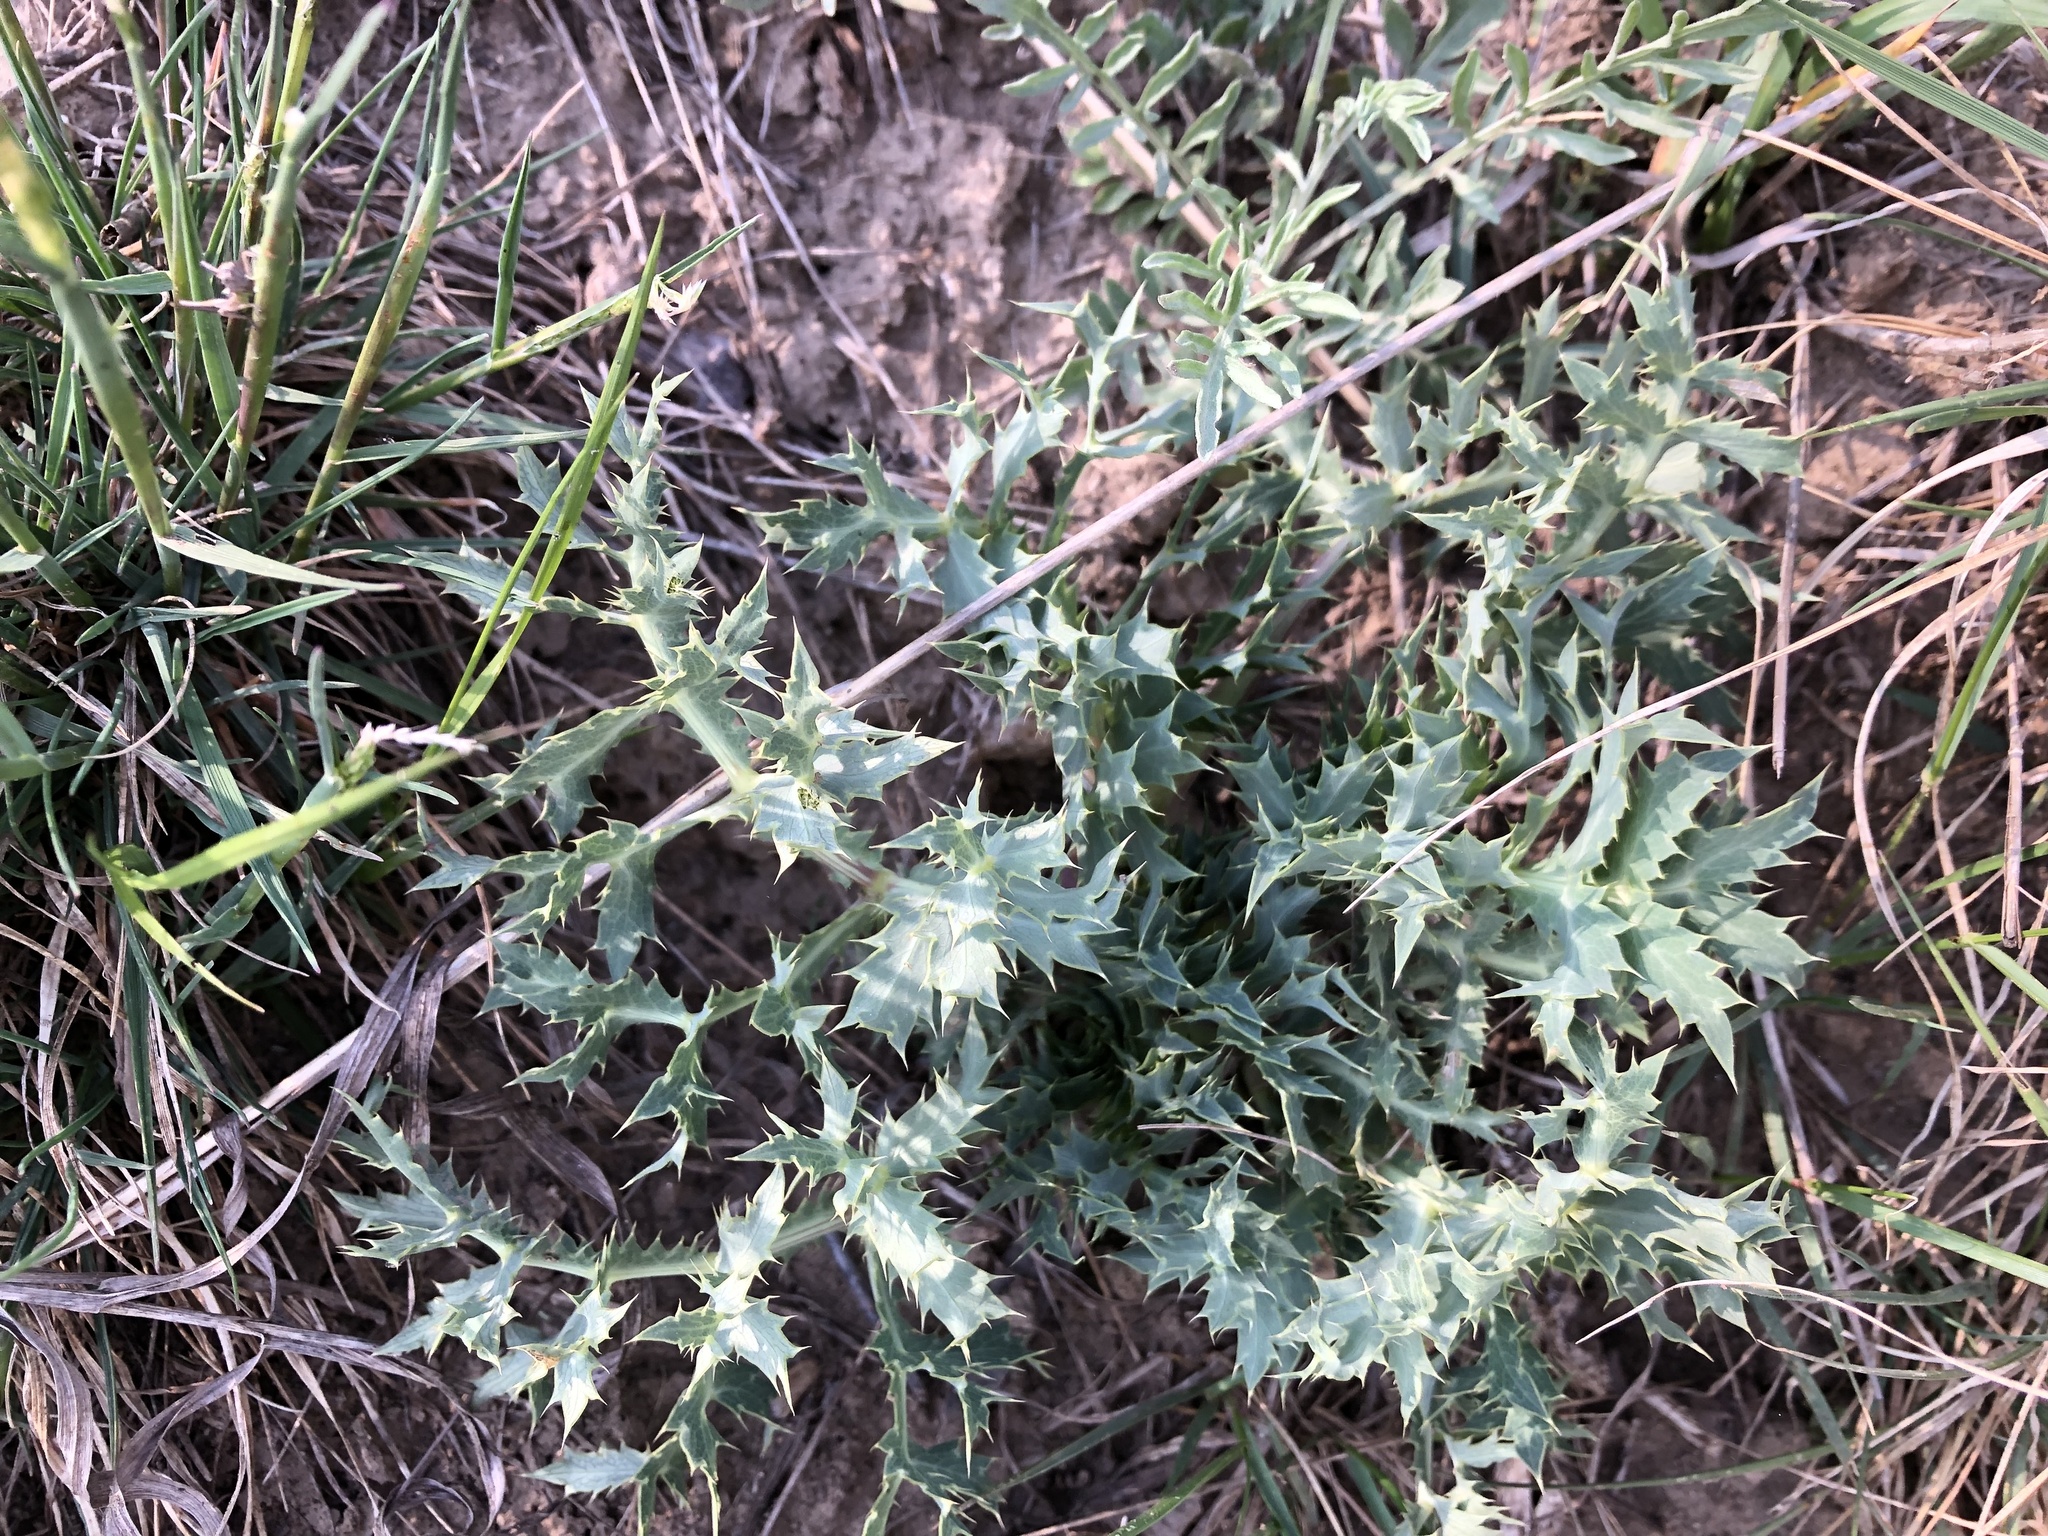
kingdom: Plantae
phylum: Tracheophyta
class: Magnoliopsida
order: Apiales
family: Apiaceae
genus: Eryngium
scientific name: Eryngium campestre
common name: Field eryngo
